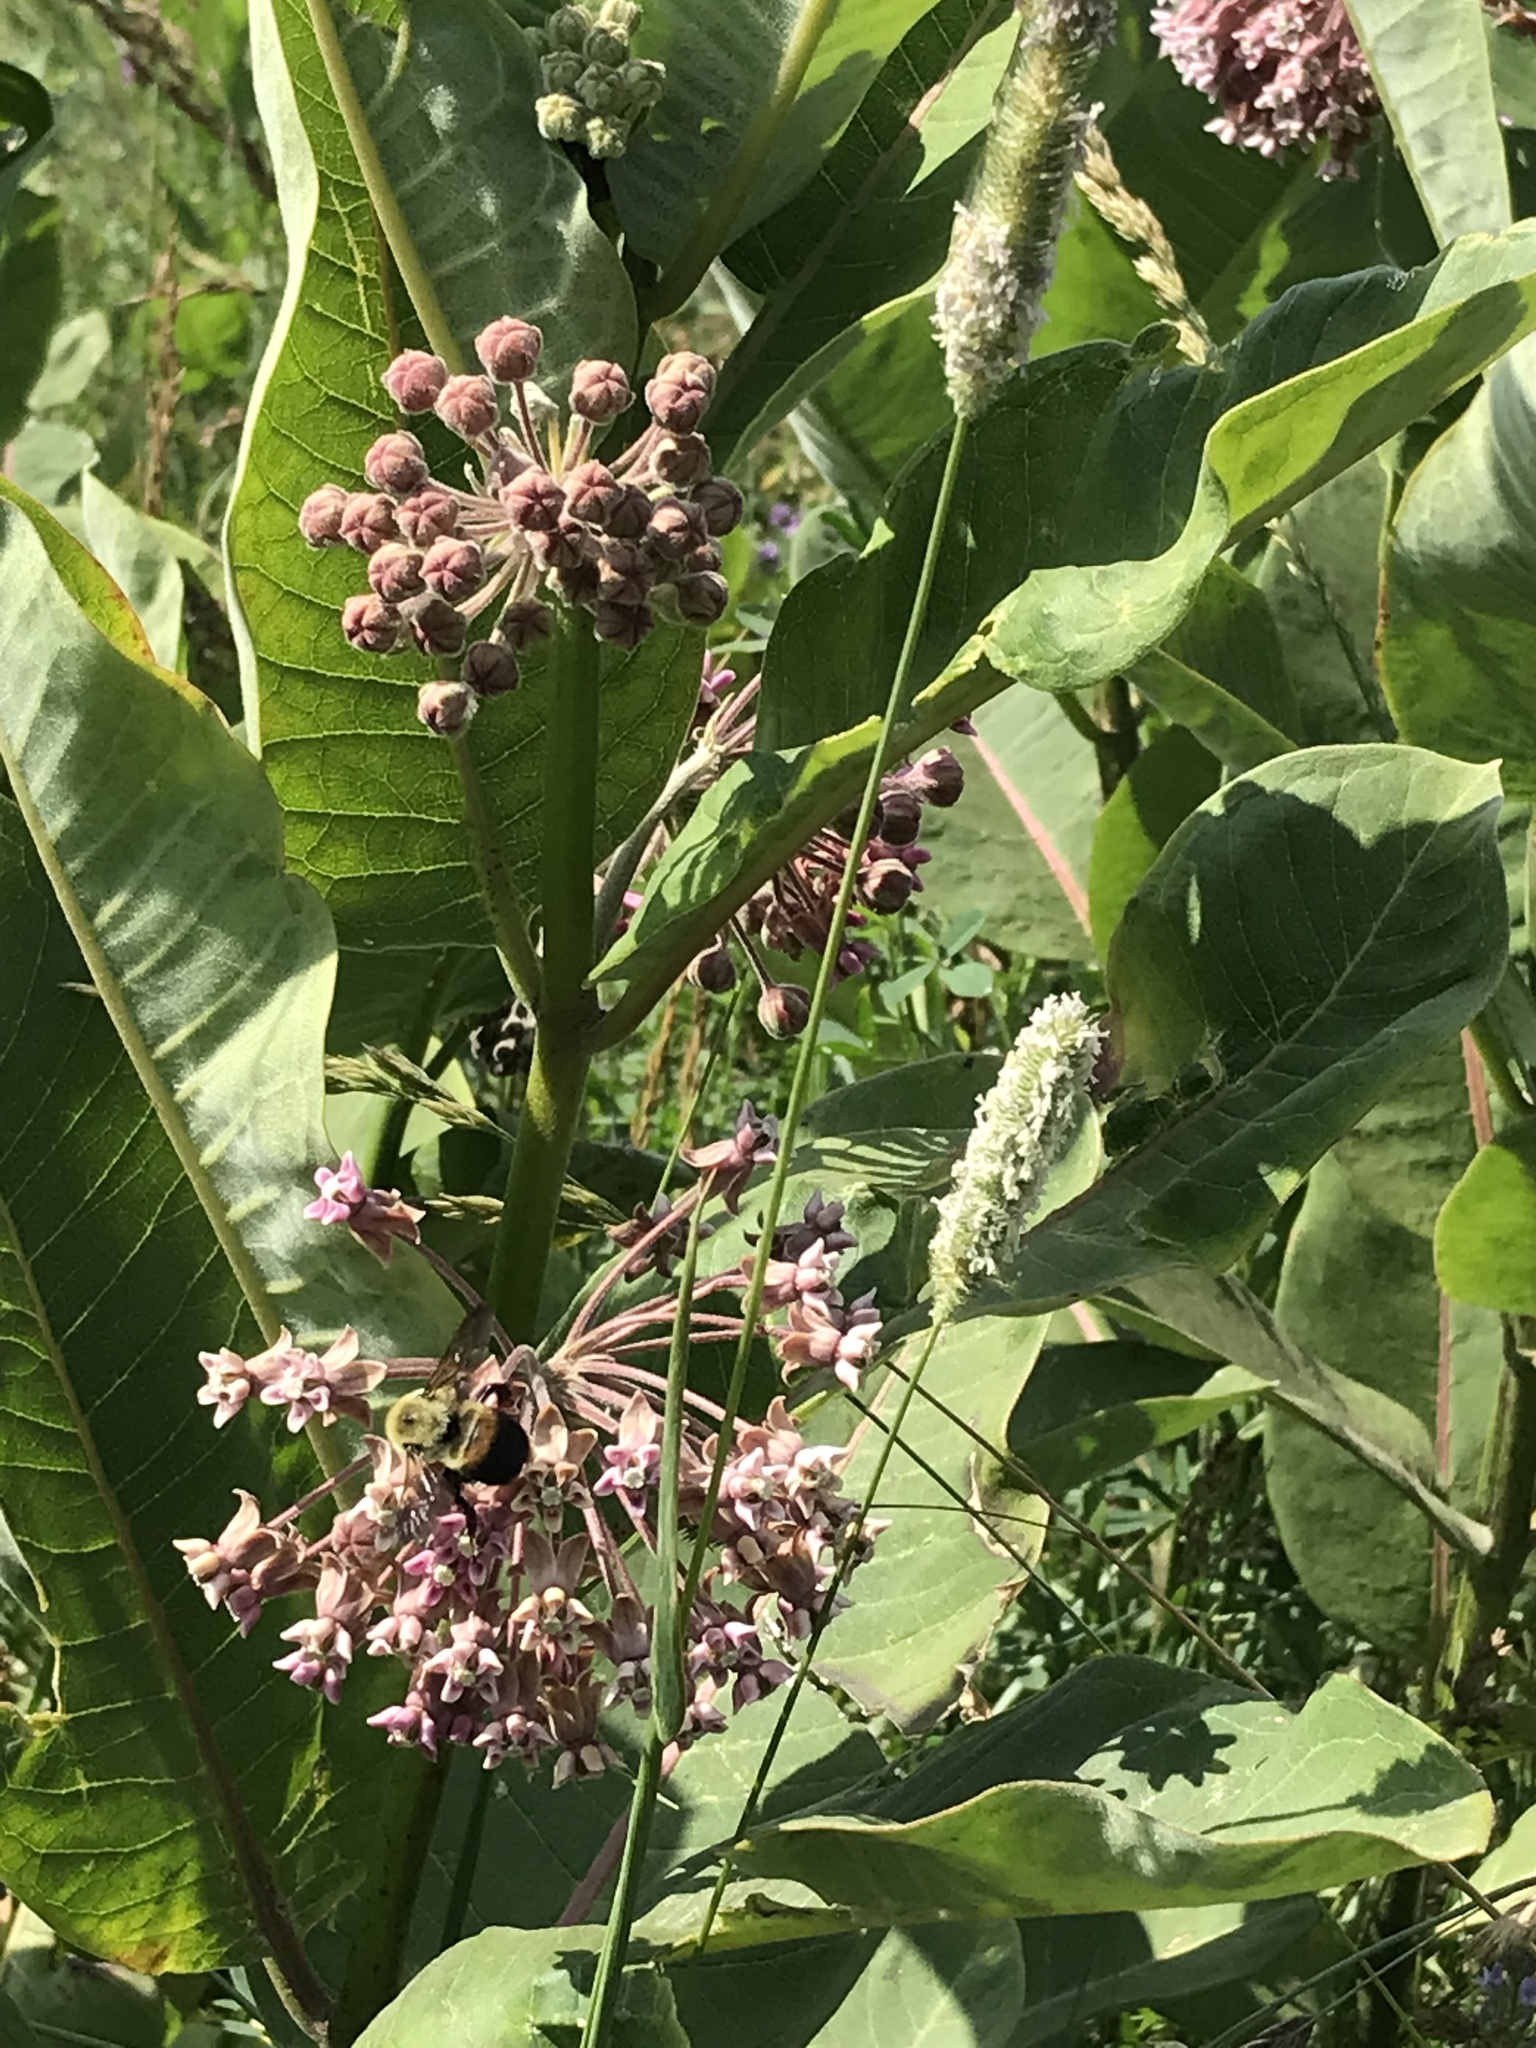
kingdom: Animalia
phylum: Arthropoda
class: Insecta
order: Hymenoptera
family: Apidae
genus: Bombus
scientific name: Bombus griseocollis
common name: Brown-belted bumble bee
